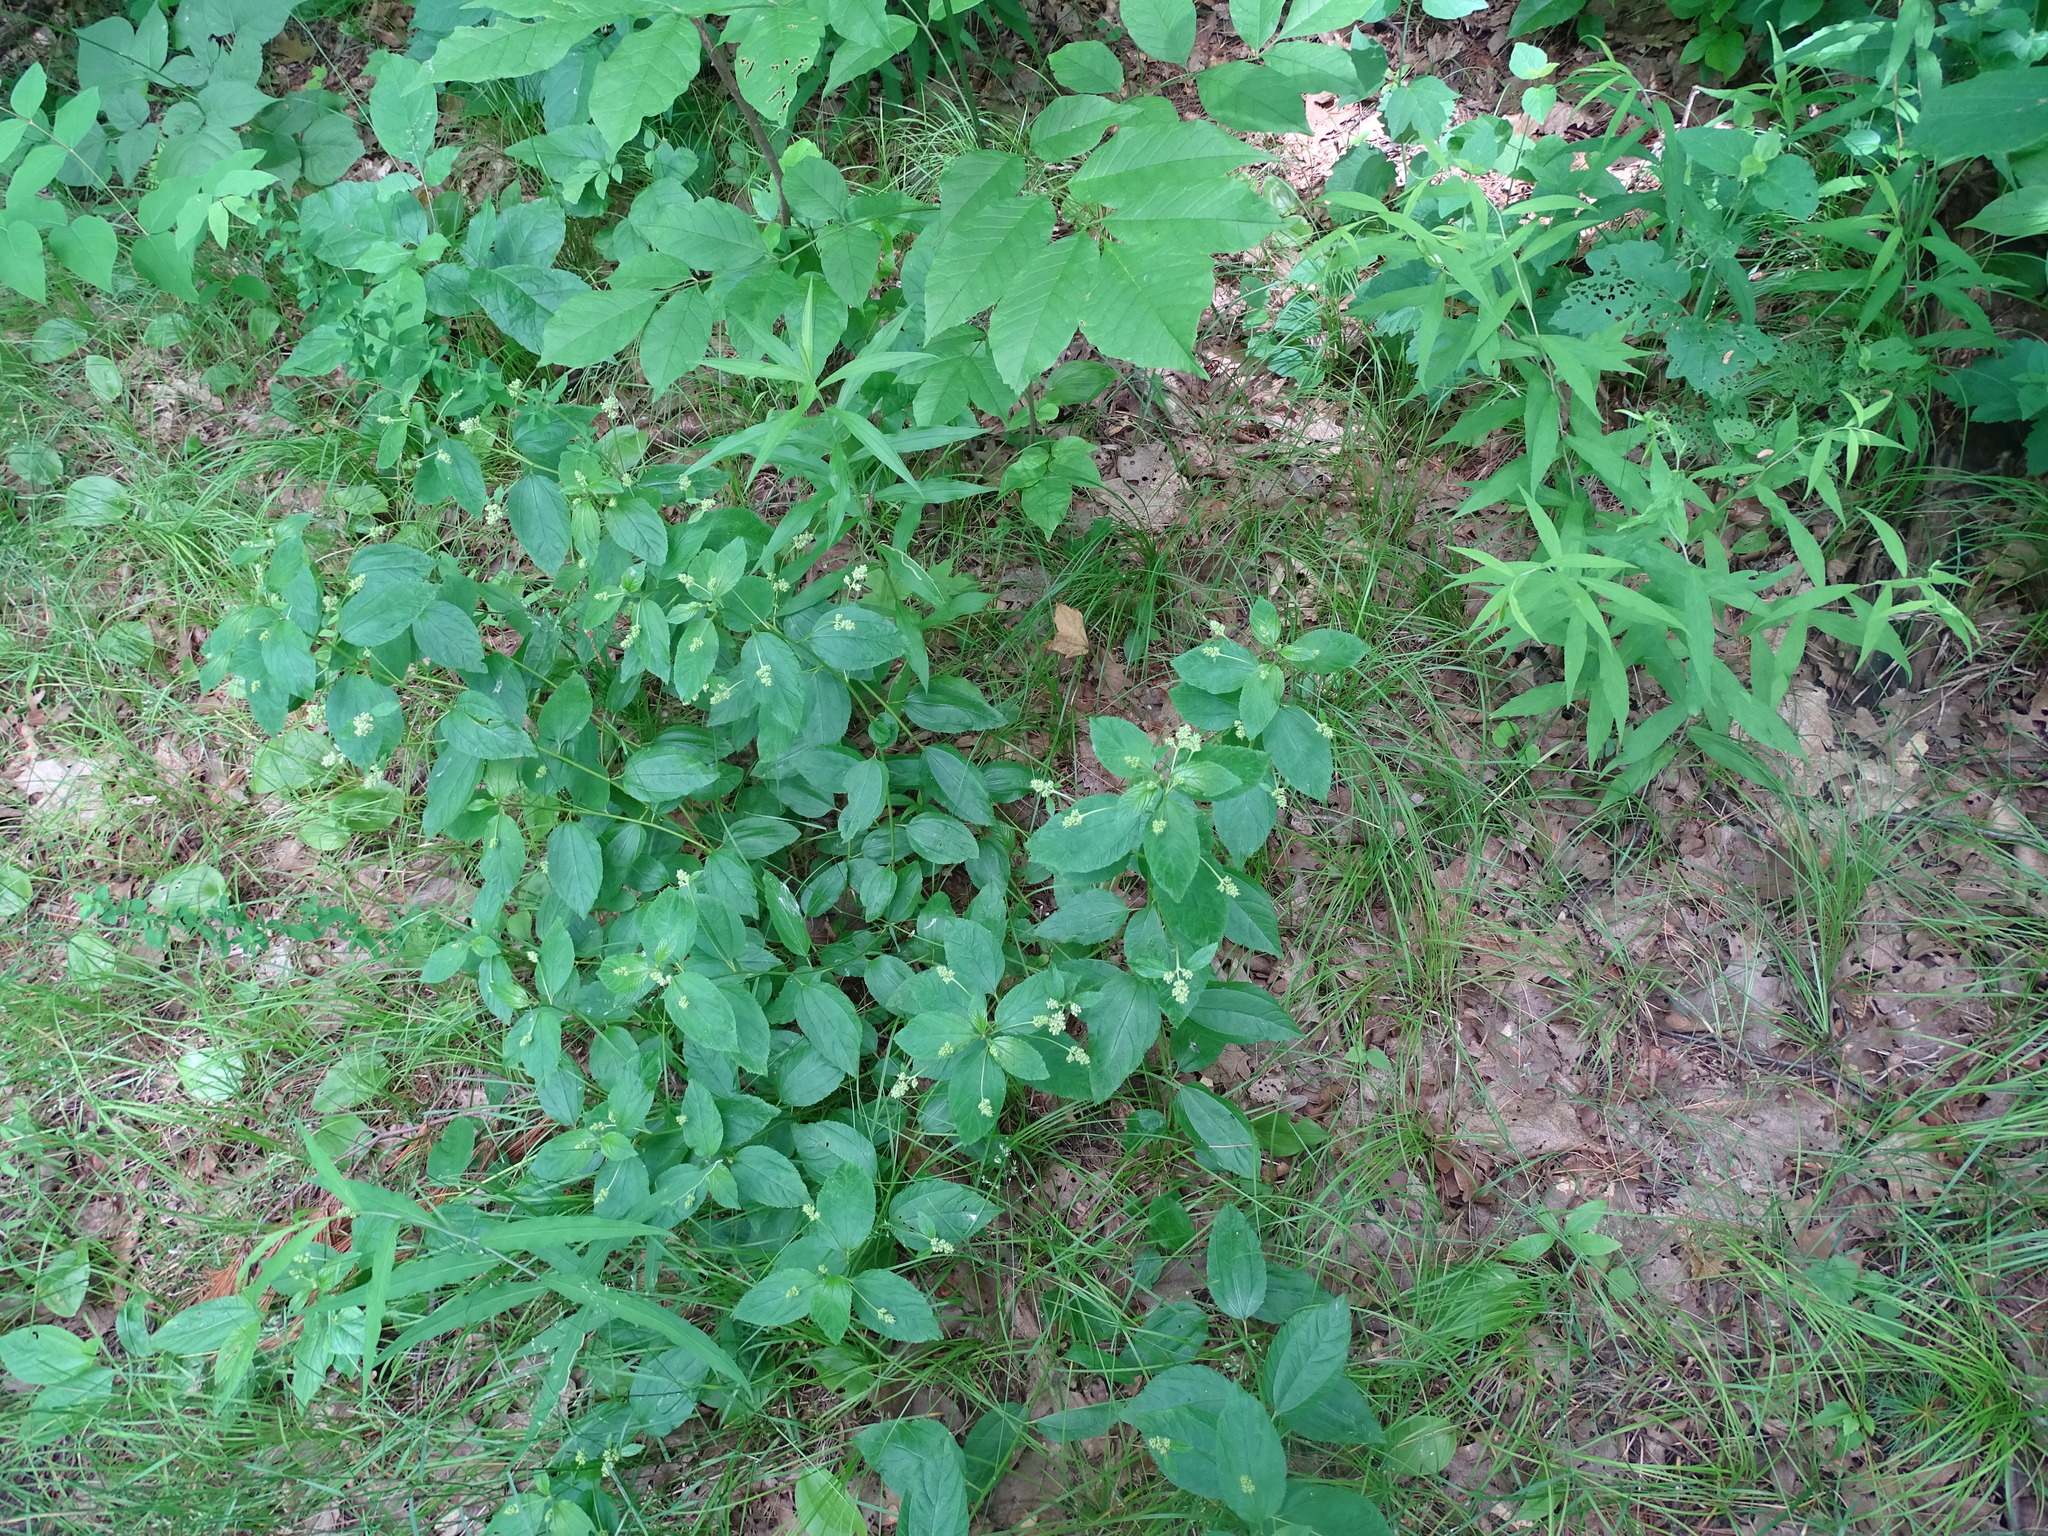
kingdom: Plantae
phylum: Tracheophyta
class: Magnoliopsida
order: Rosales
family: Rhamnaceae
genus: Ceanothus
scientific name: Ceanothus americanus
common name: Redroot
